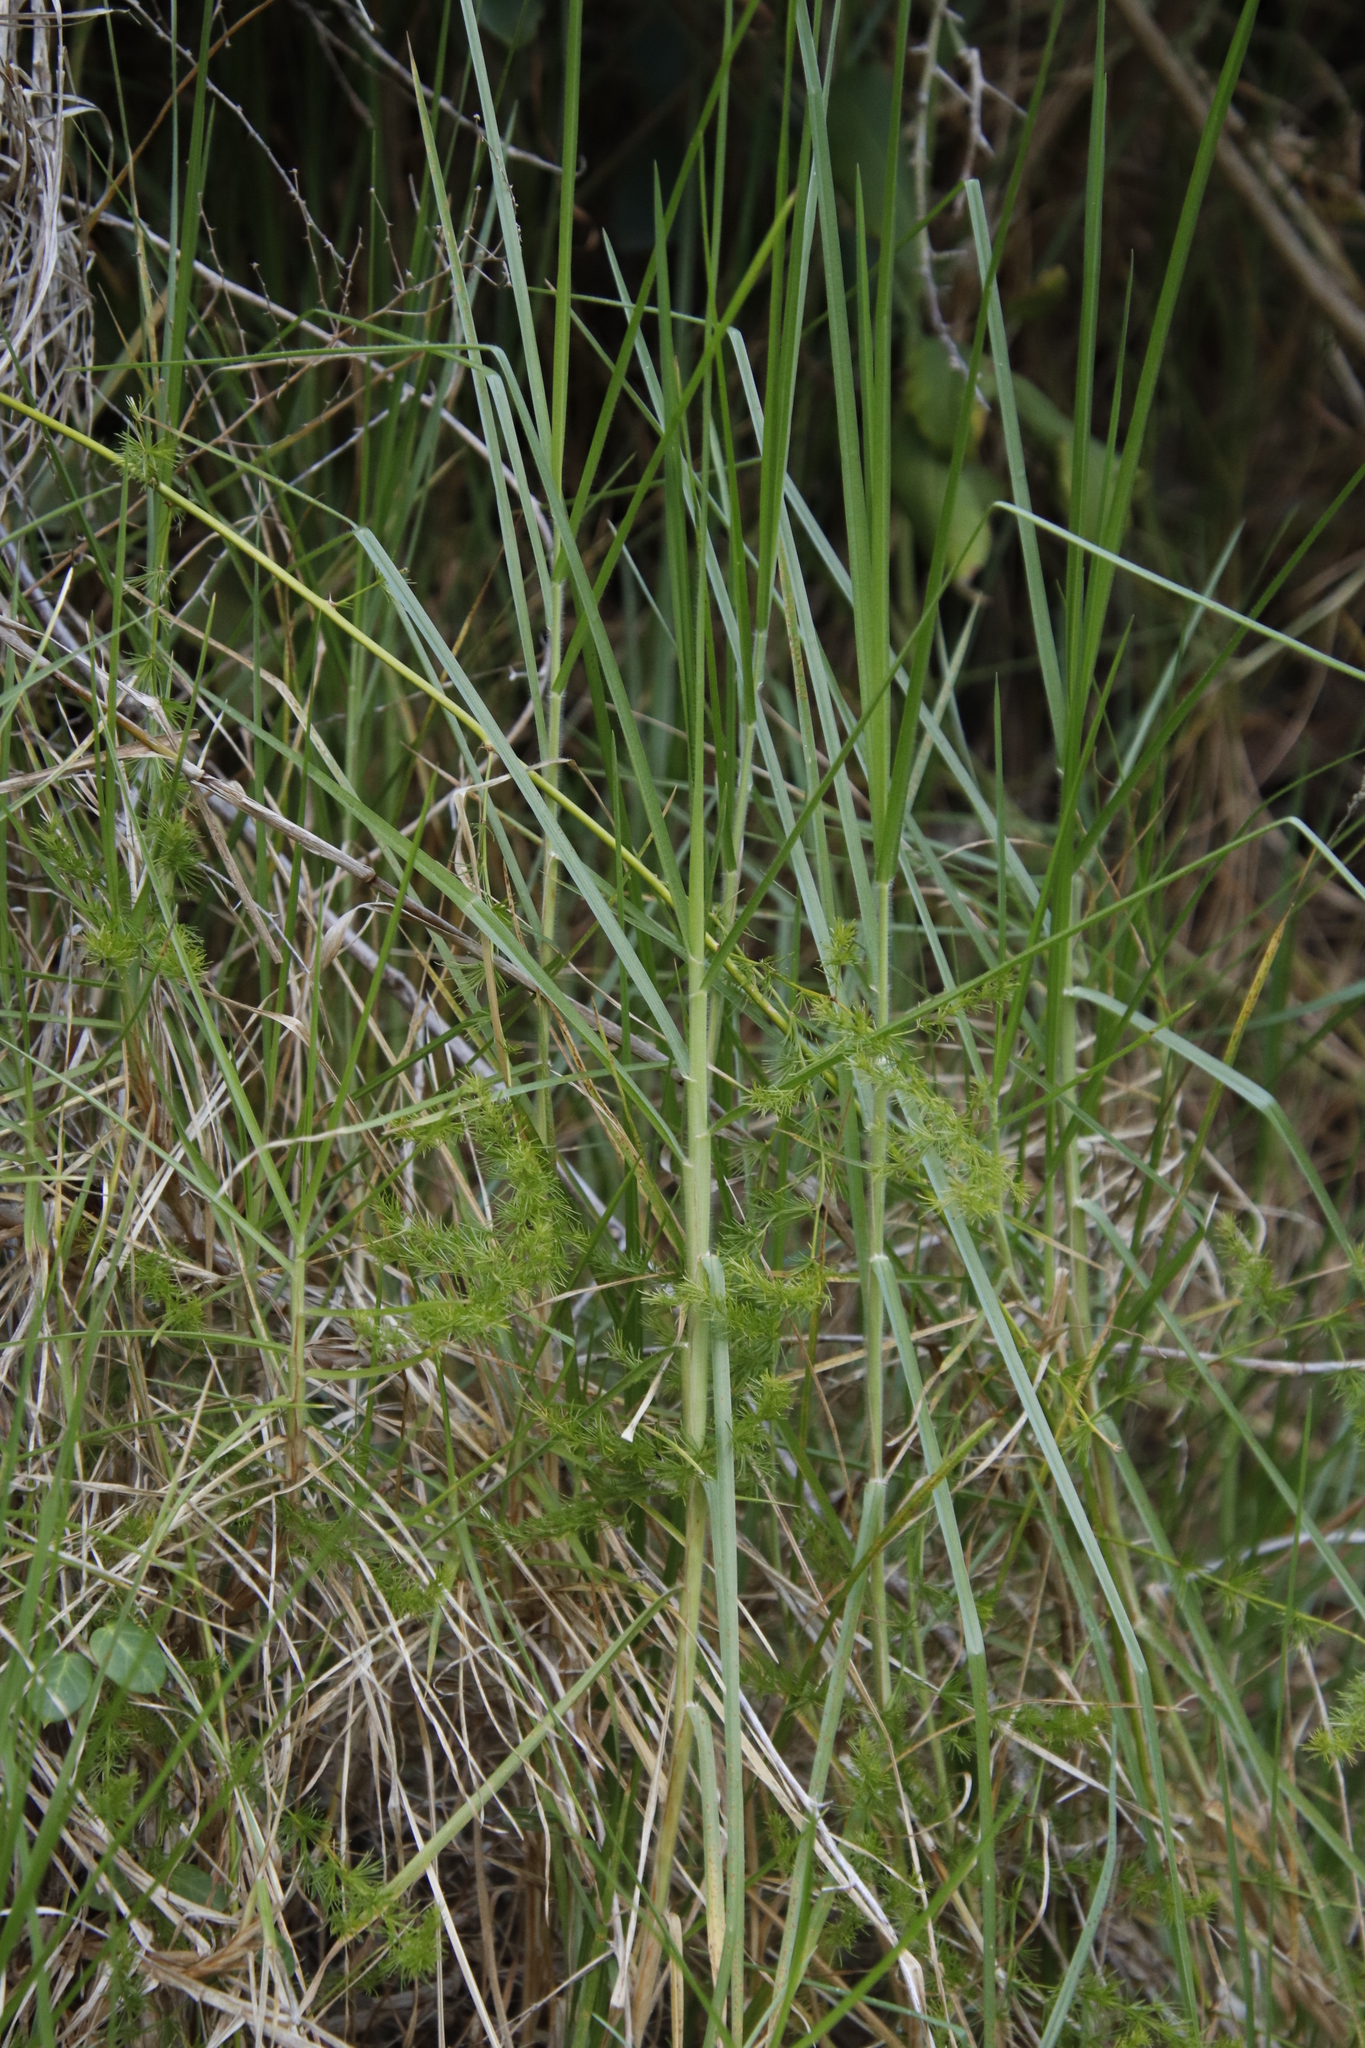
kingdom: Plantae
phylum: Tracheophyta
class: Liliopsida
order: Poales
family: Poaceae
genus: Cenchrus
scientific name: Cenchrus clandestinus
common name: Kikuyugrass
